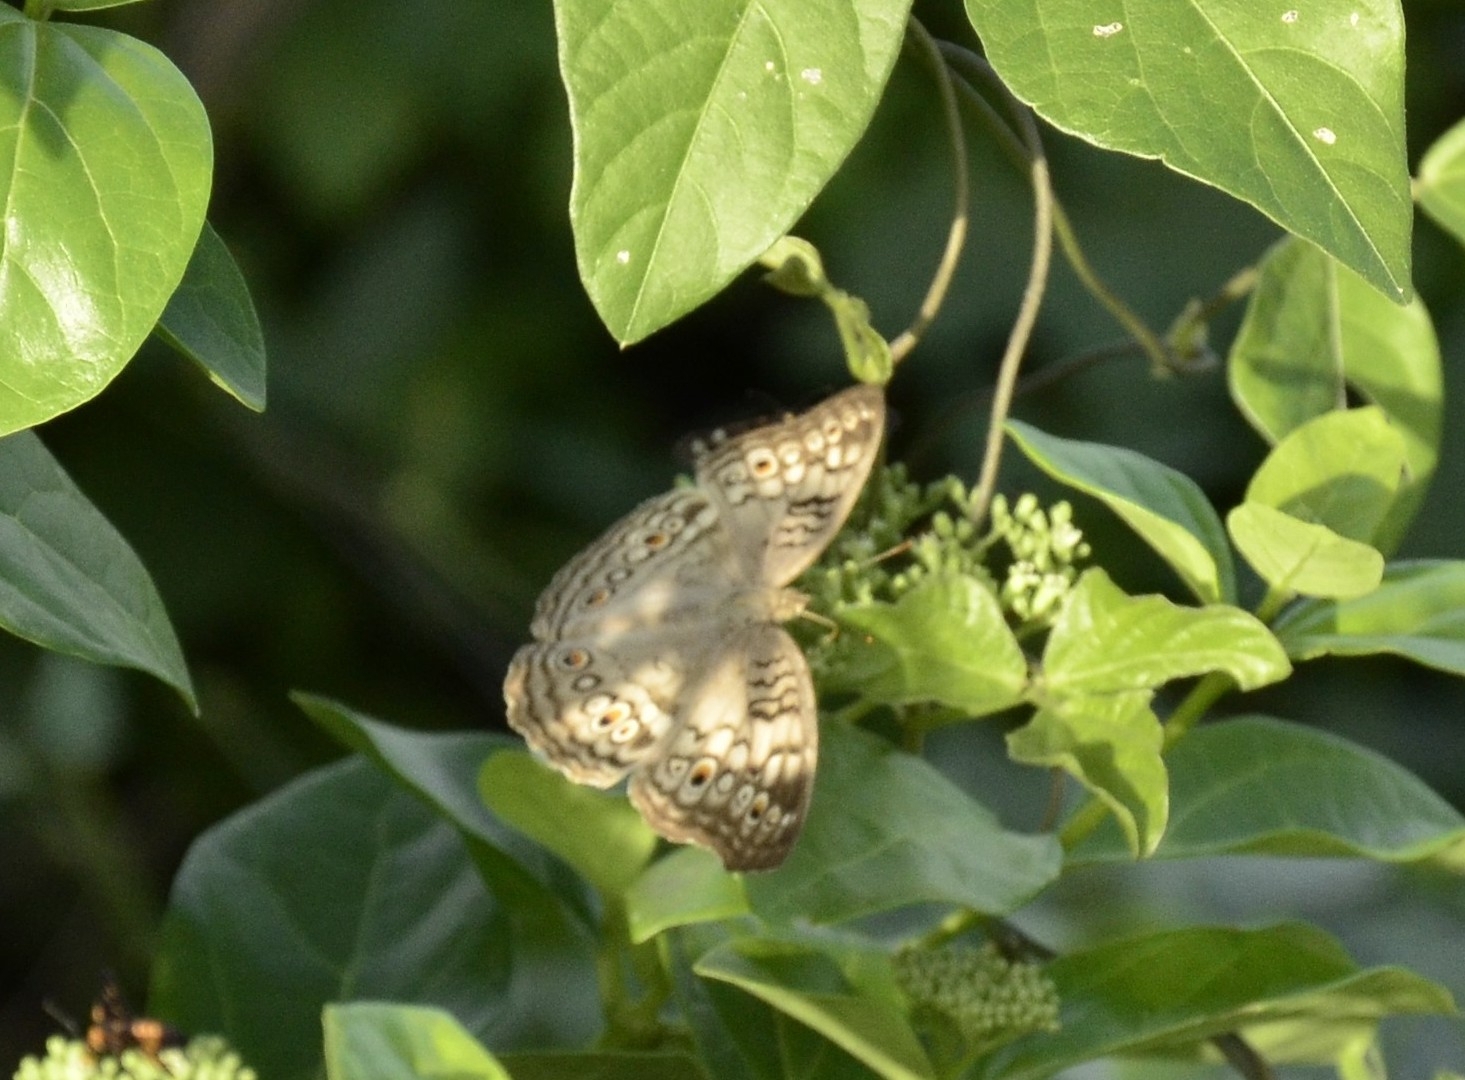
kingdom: Animalia
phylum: Arthropoda
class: Insecta
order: Lepidoptera
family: Nymphalidae
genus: Junonia
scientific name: Junonia atlites
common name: Grey pansy
